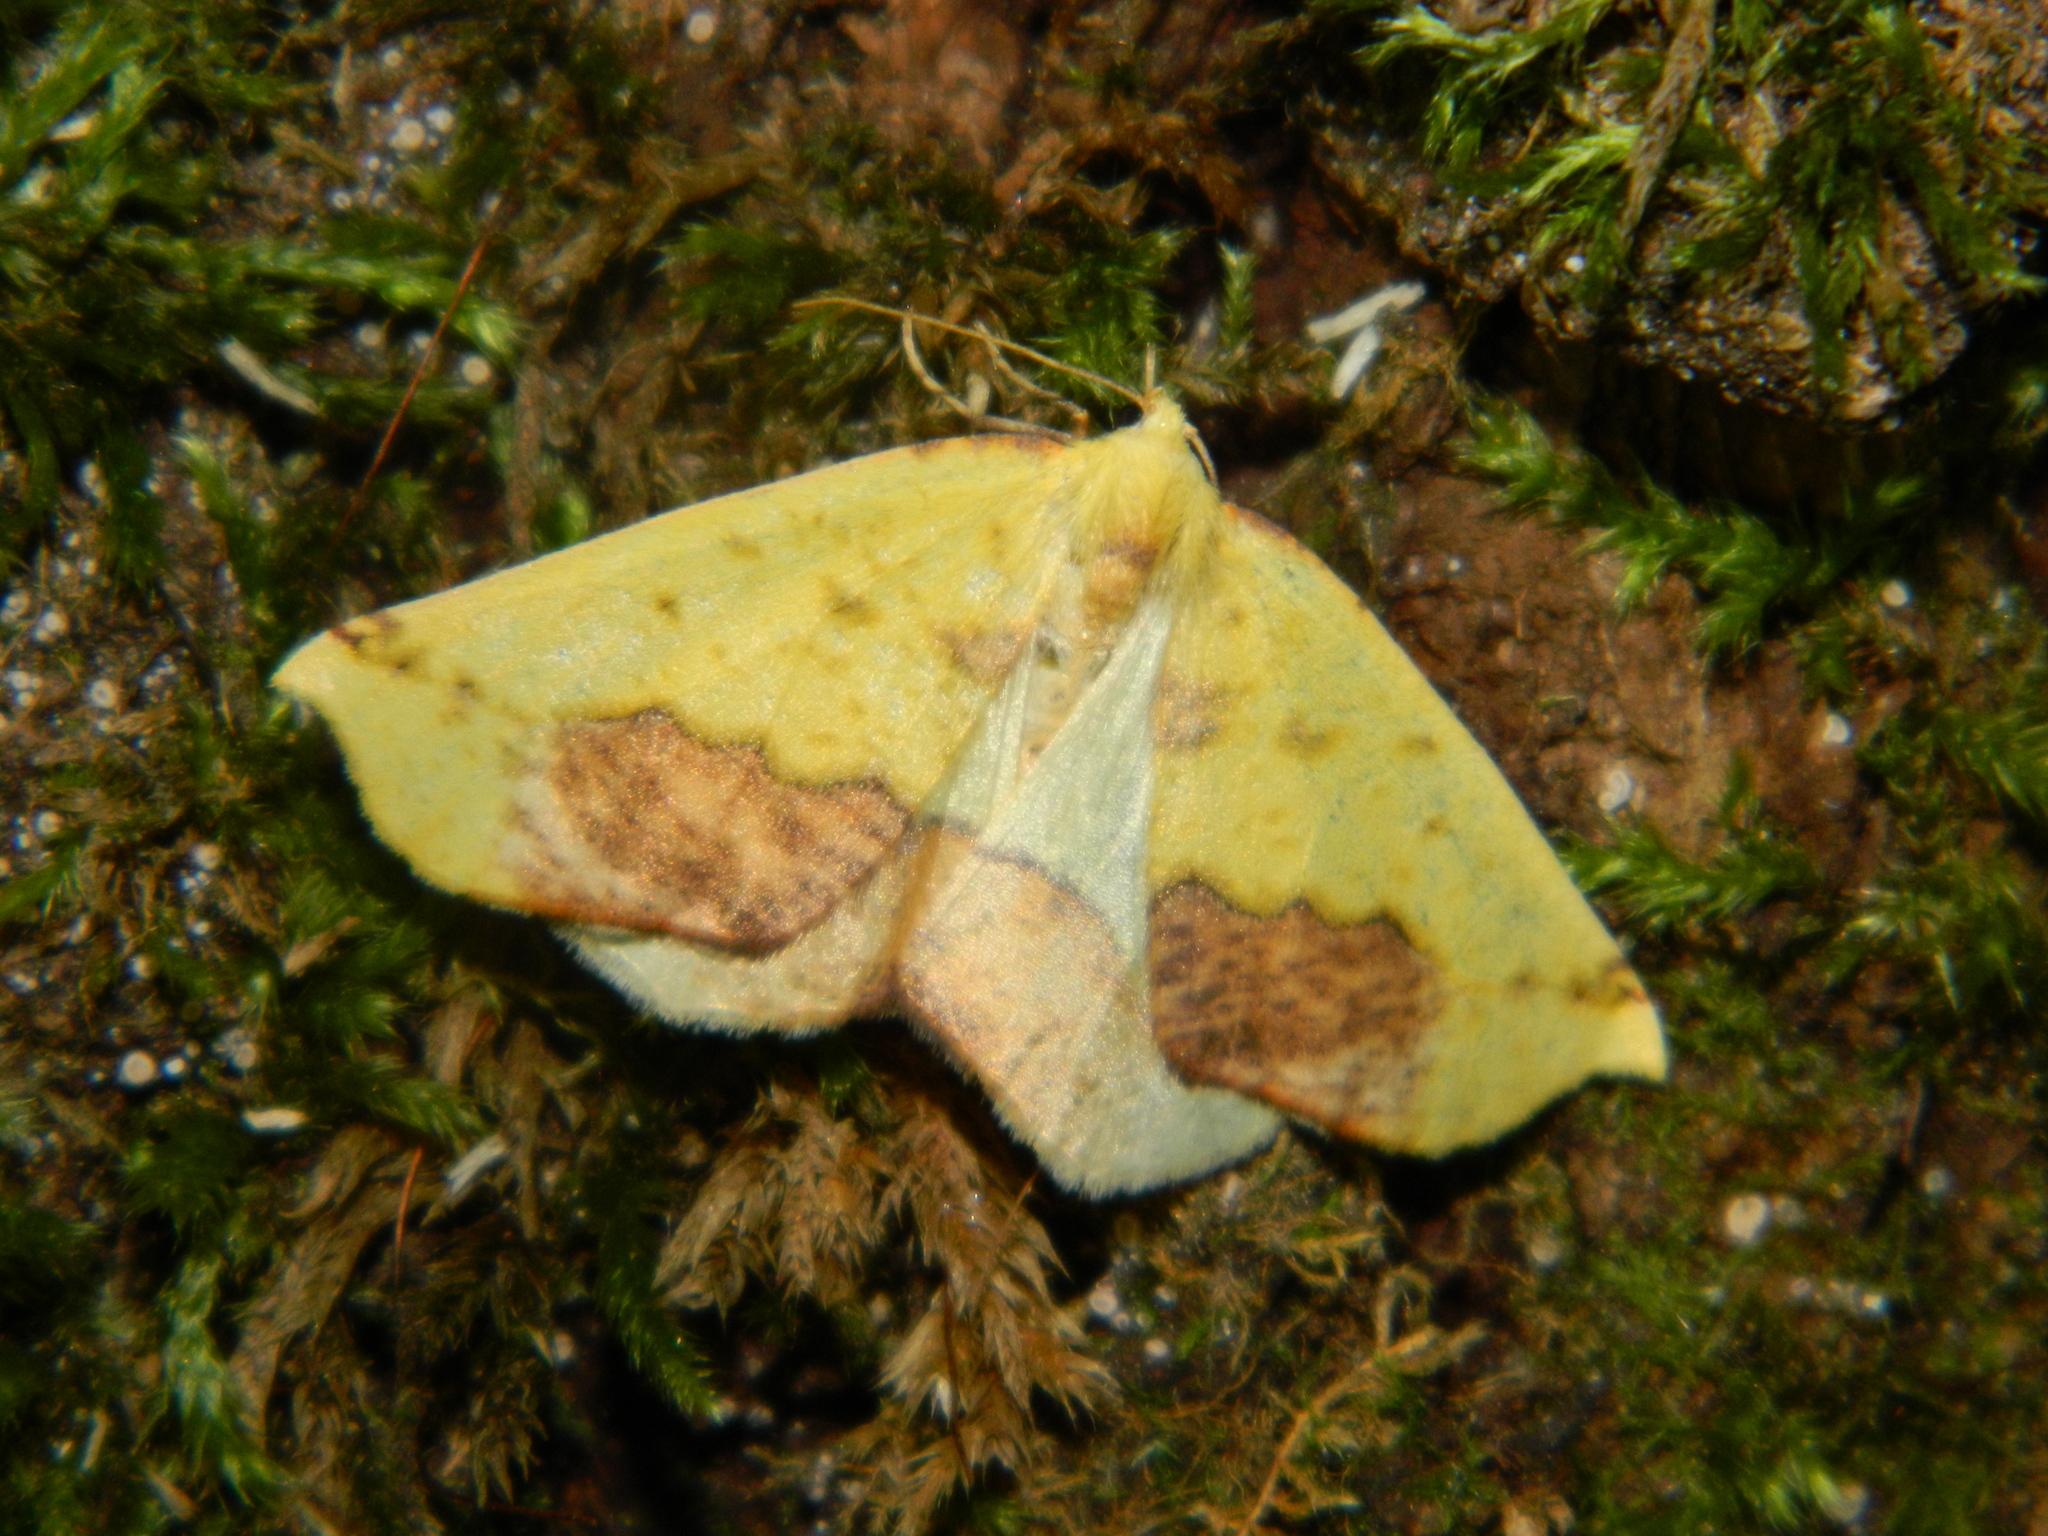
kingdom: Animalia
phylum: Arthropoda
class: Insecta
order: Lepidoptera
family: Geometridae
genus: Sicya
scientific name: Sicya macularia
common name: Sharp-lined yellow
